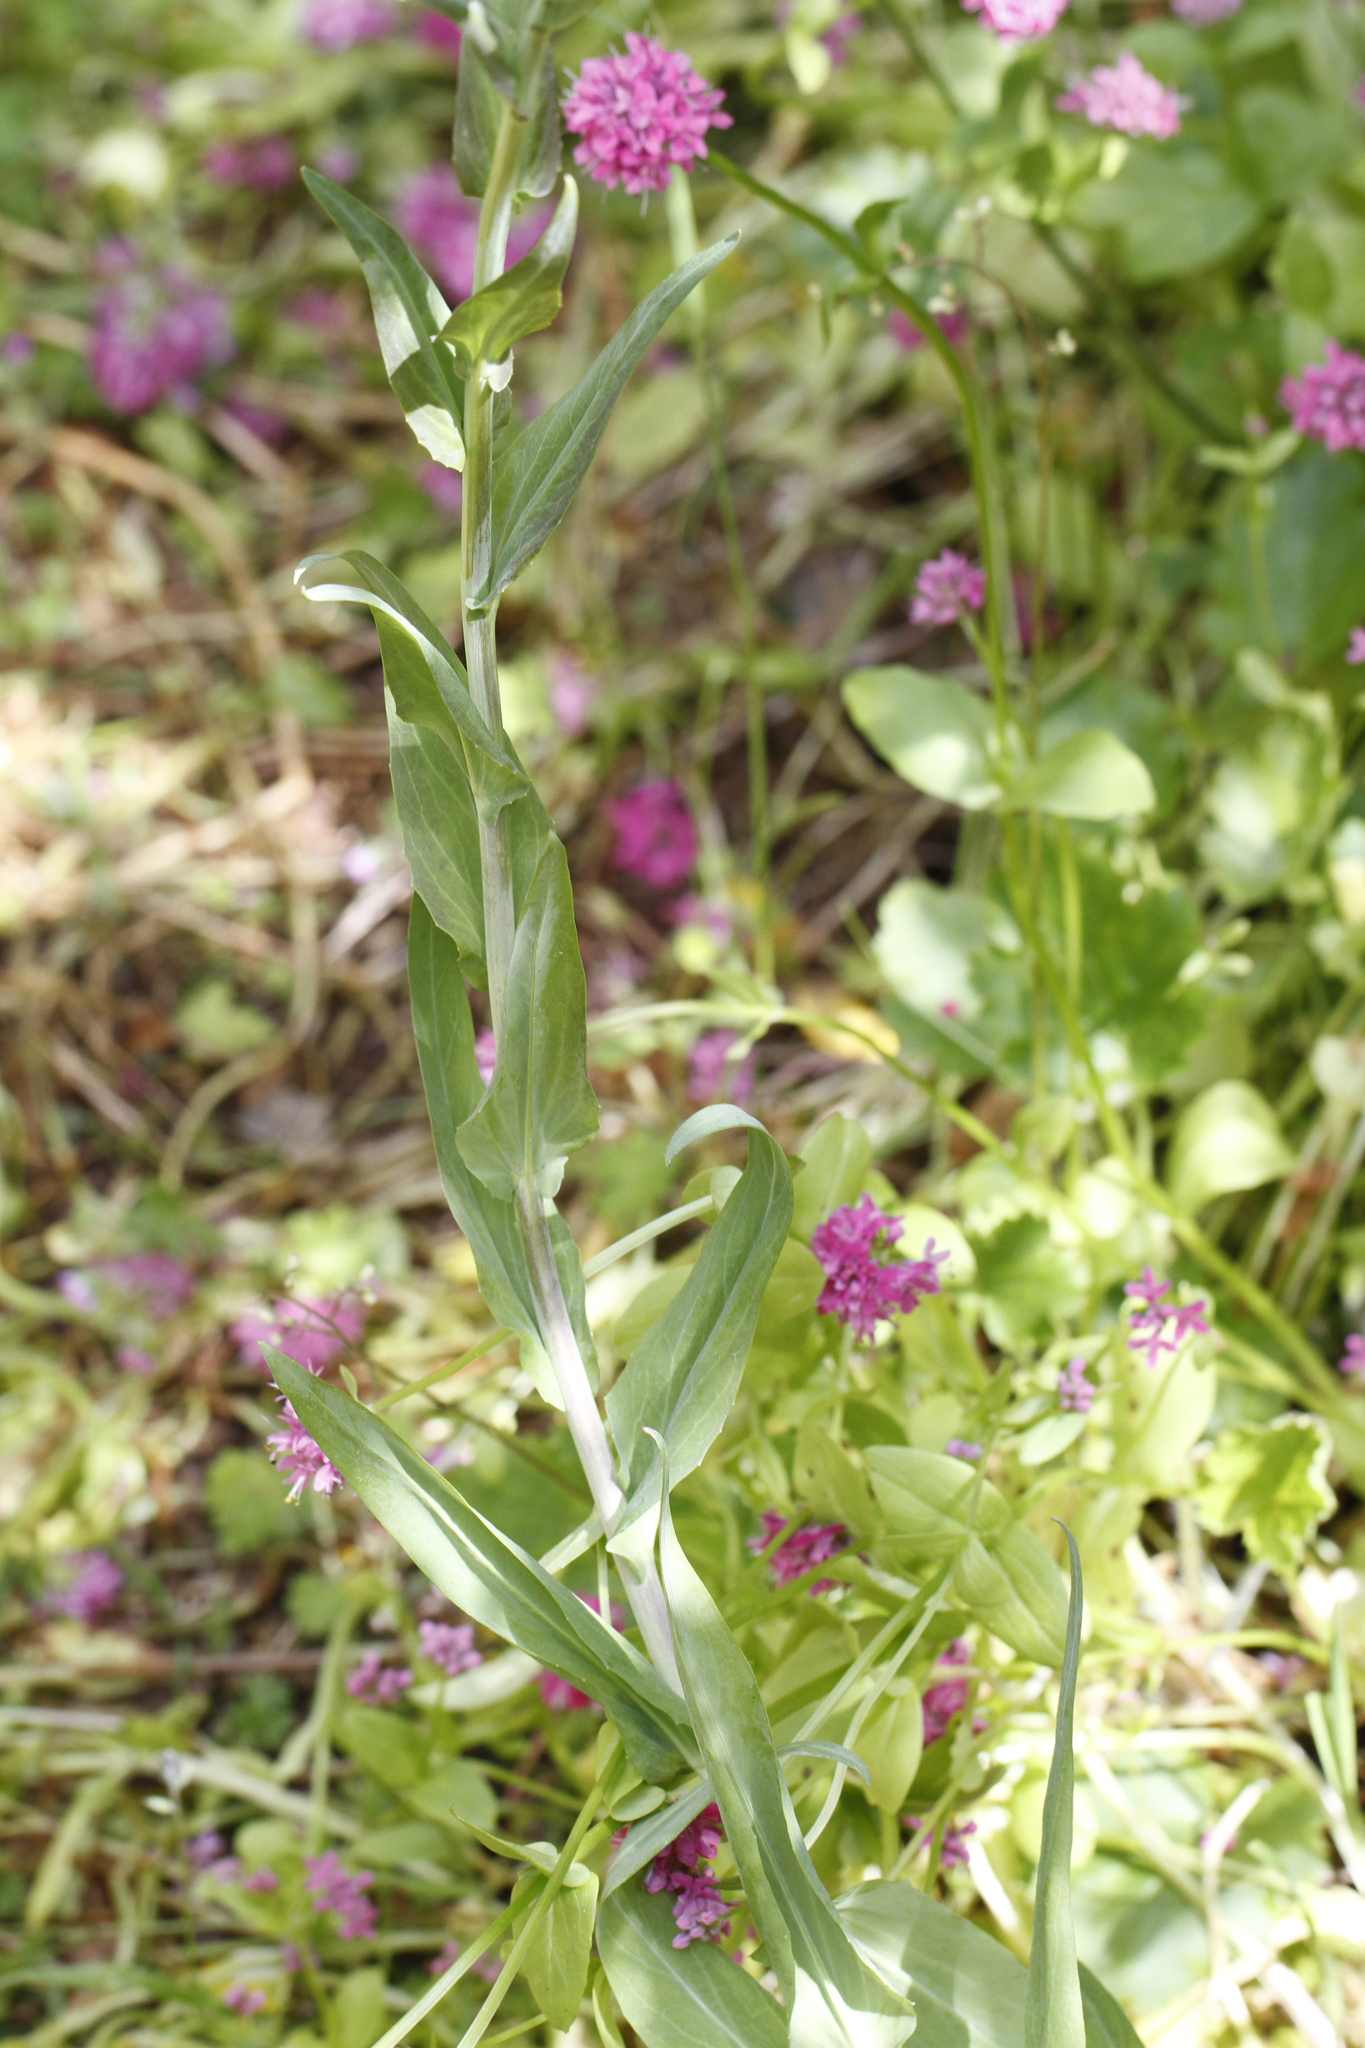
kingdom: Plantae
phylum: Tracheophyta
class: Magnoliopsida
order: Brassicales
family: Brassicaceae
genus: Turritis
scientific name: Turritis glabra
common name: Tower rockcress
